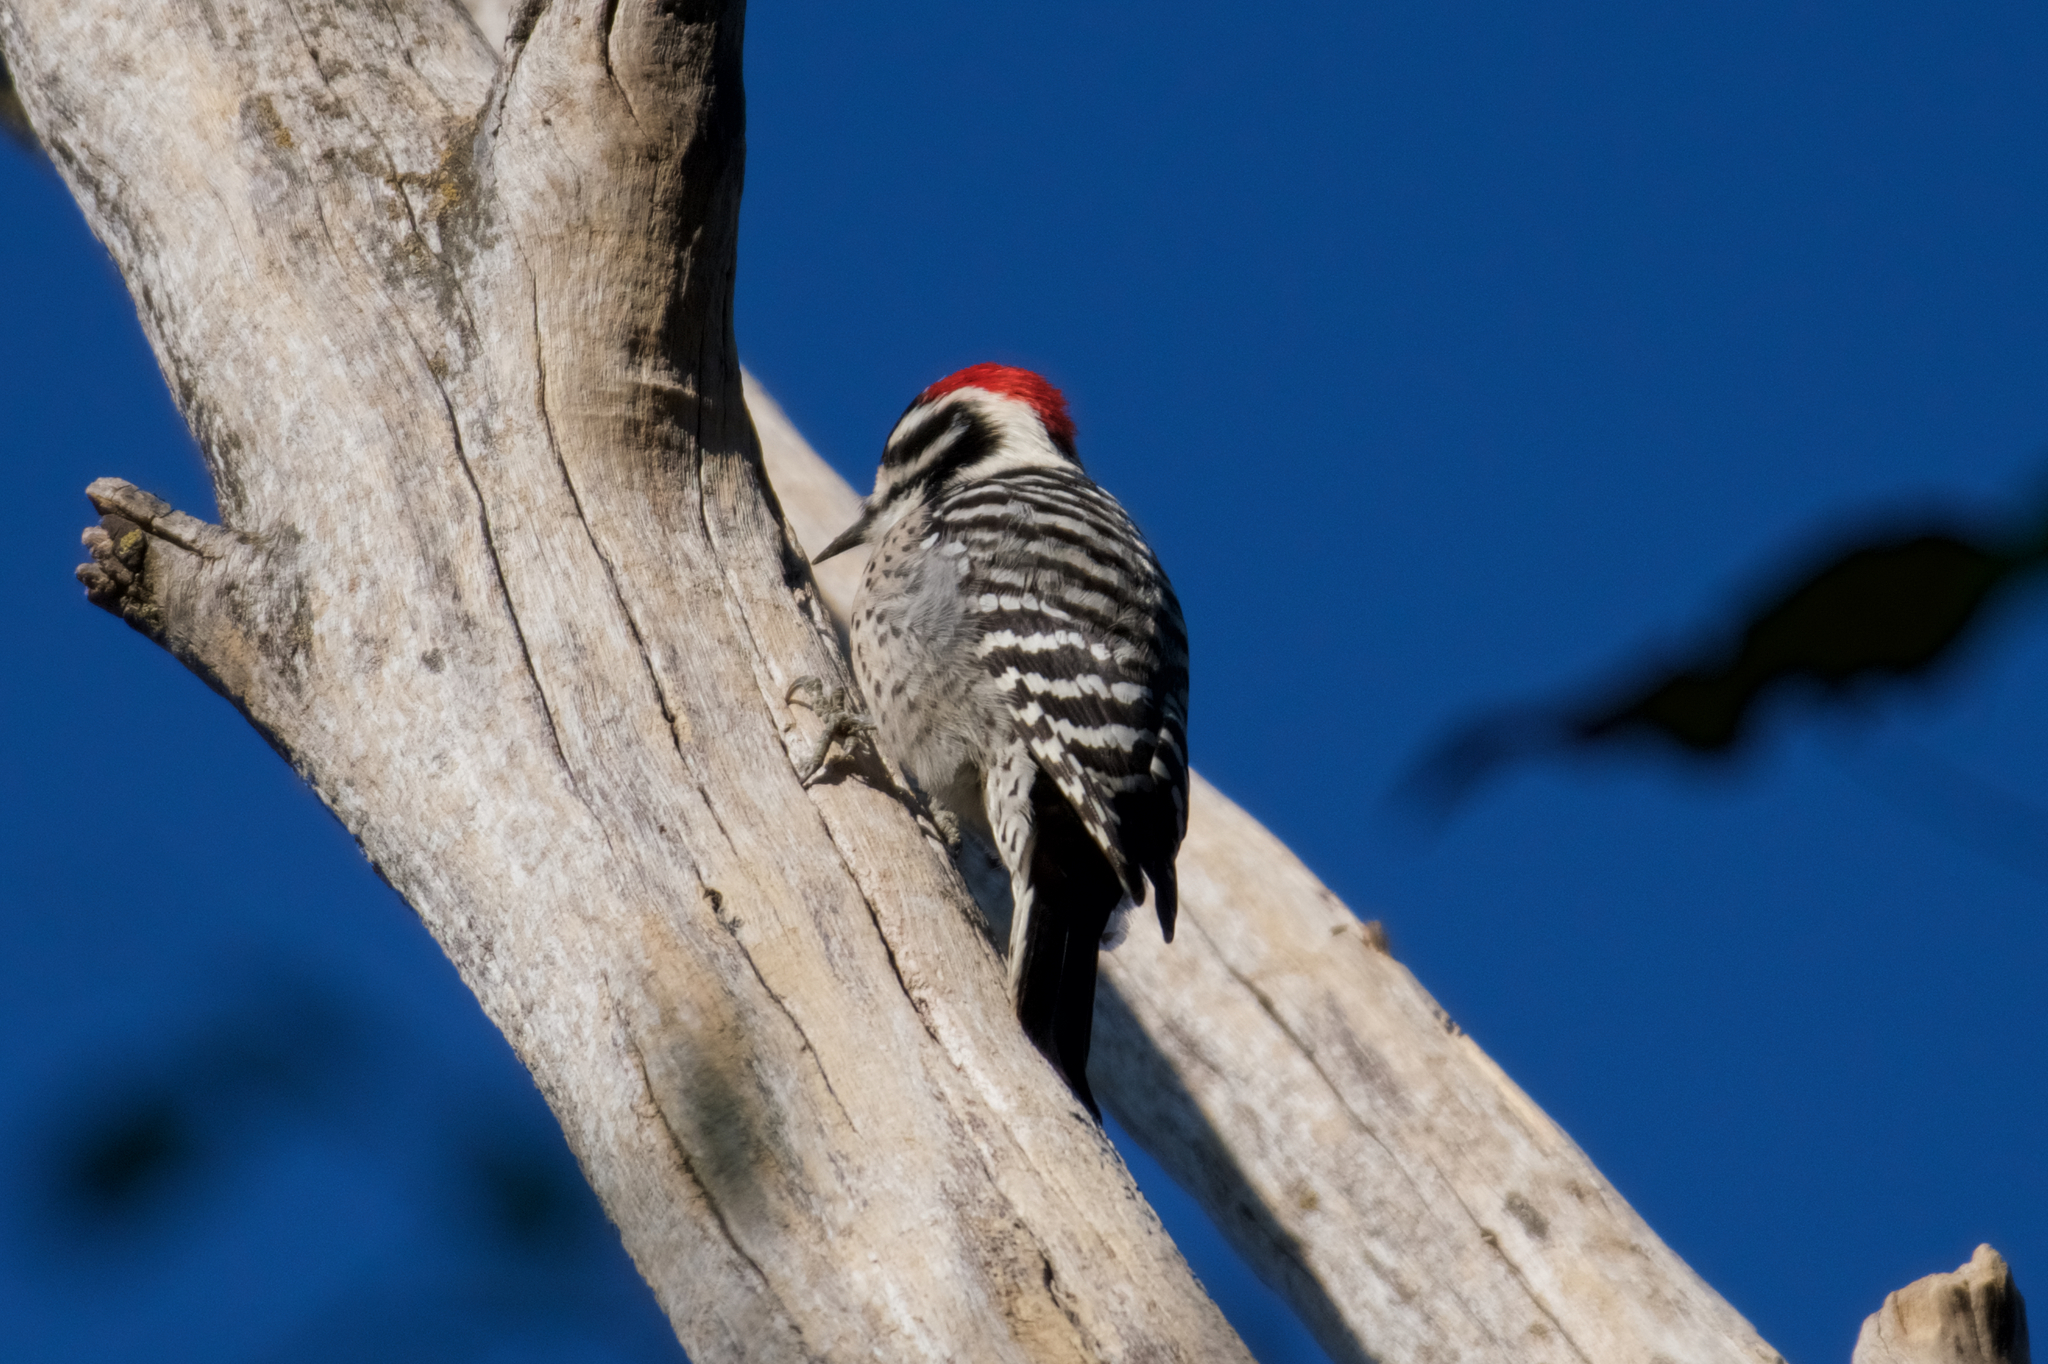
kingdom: Animalia
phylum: Chordata
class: Aves
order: Piciformes
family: Picidae
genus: Dryobates
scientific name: Dryobates nuttallii
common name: Nuttall's woodpecker
